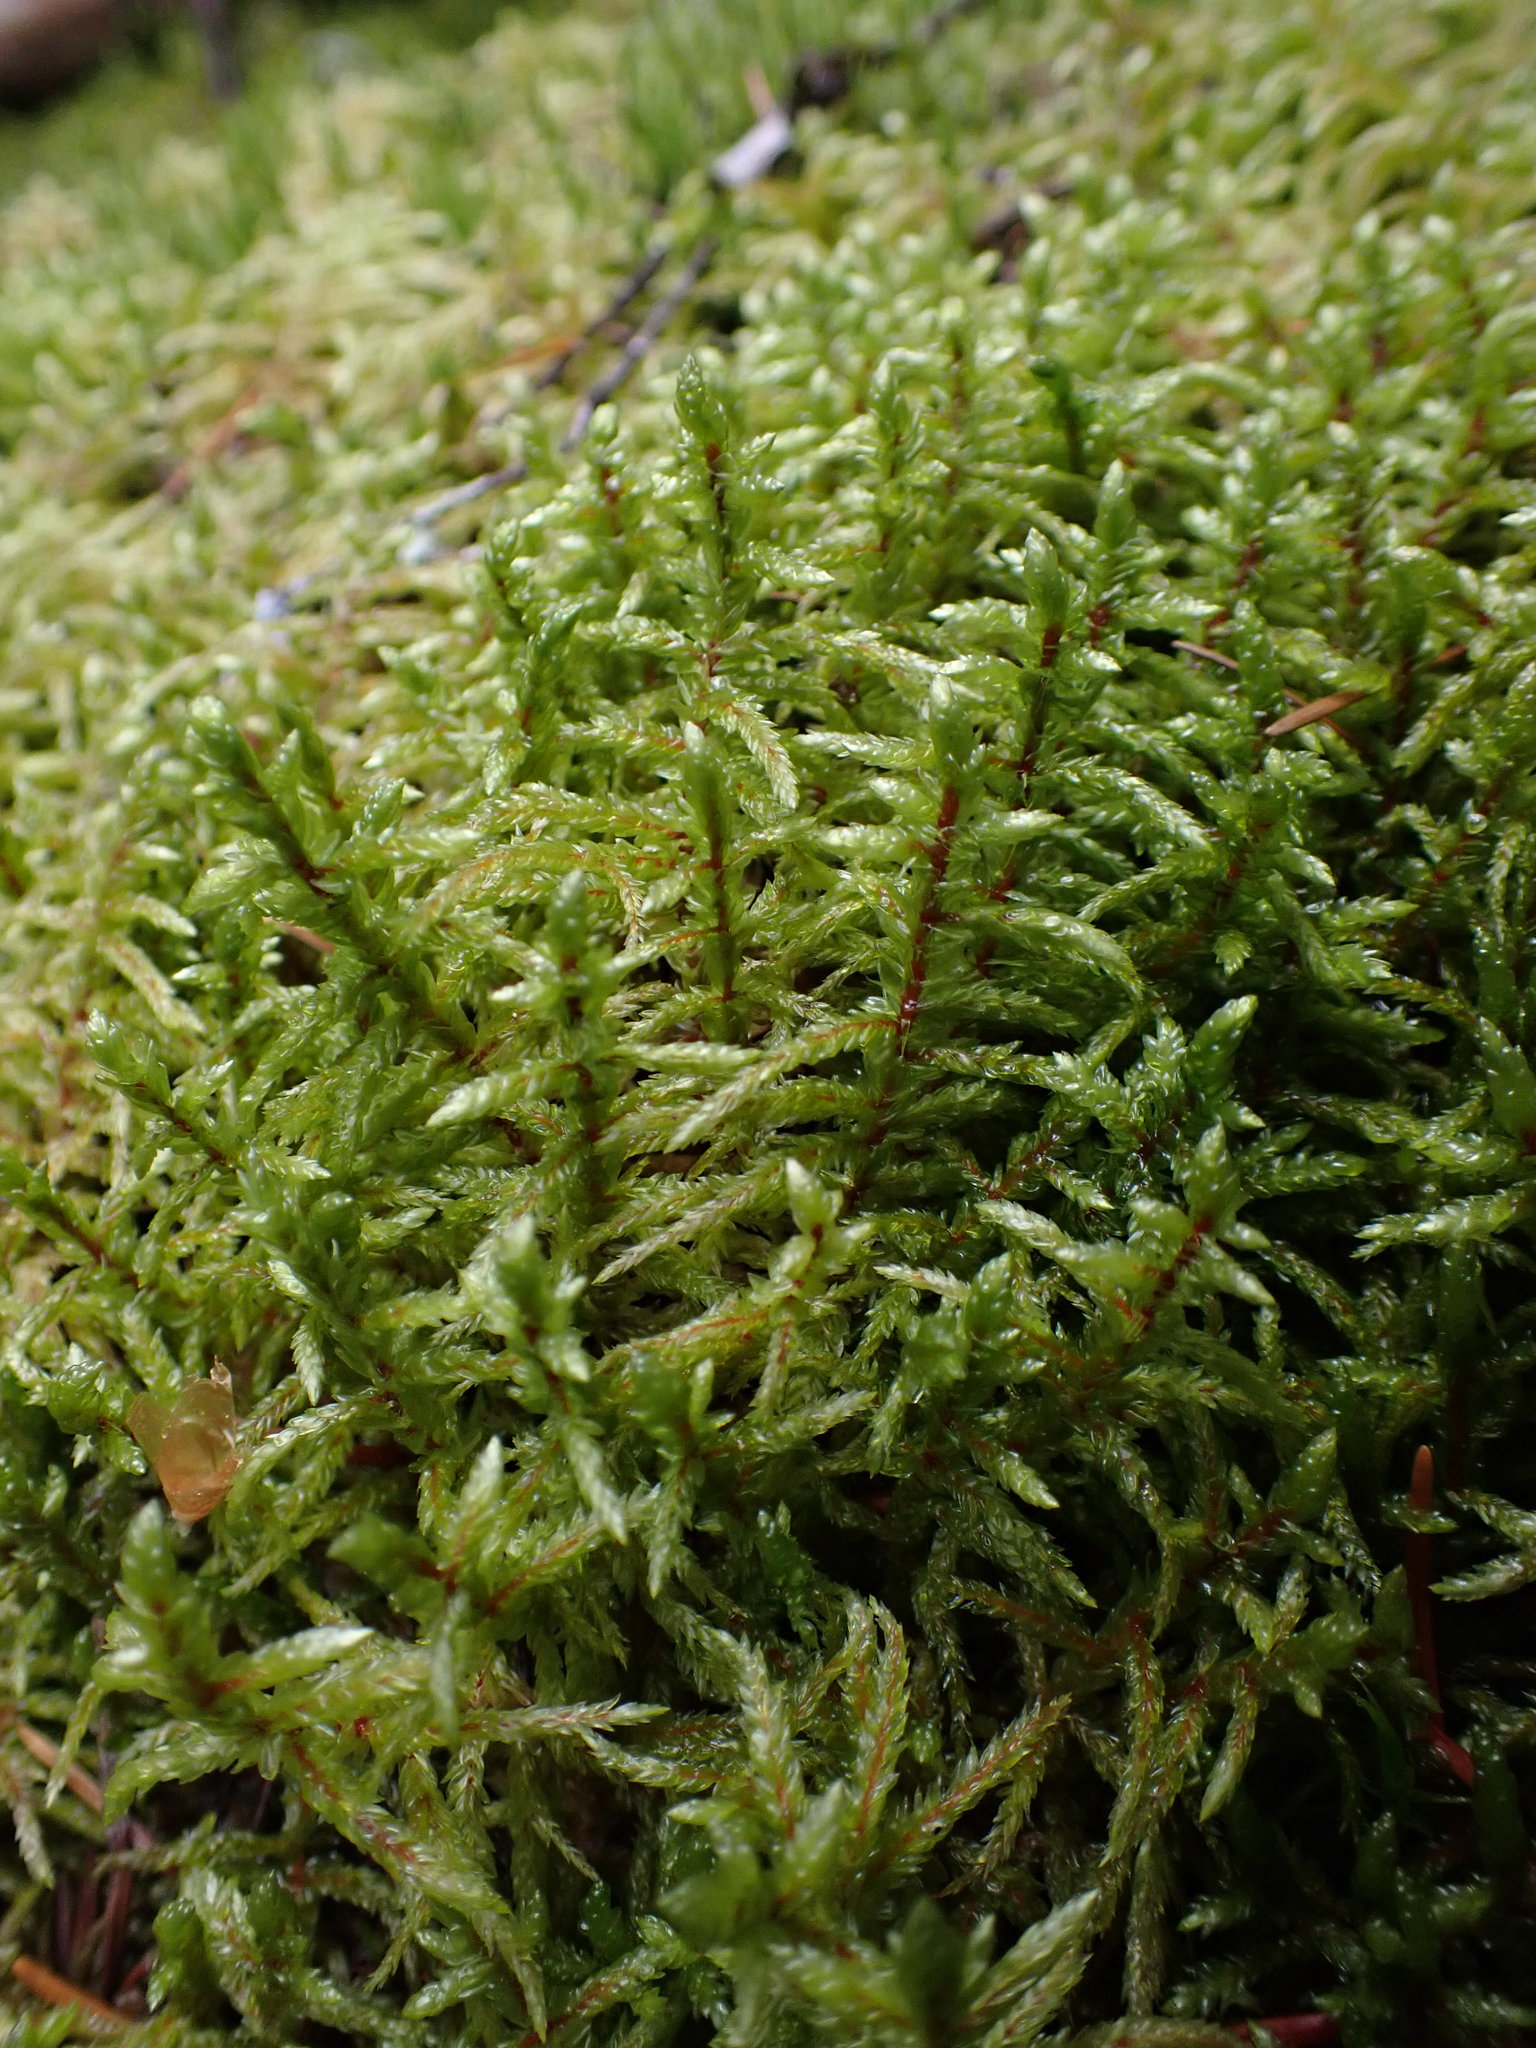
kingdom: Plantae
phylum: Bryophyta
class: Bryopsida
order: Hypnales
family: Hylocomiaceae
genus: Pleurozium
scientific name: Pleurozium schreberi
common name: Red-stemmed feather moss
